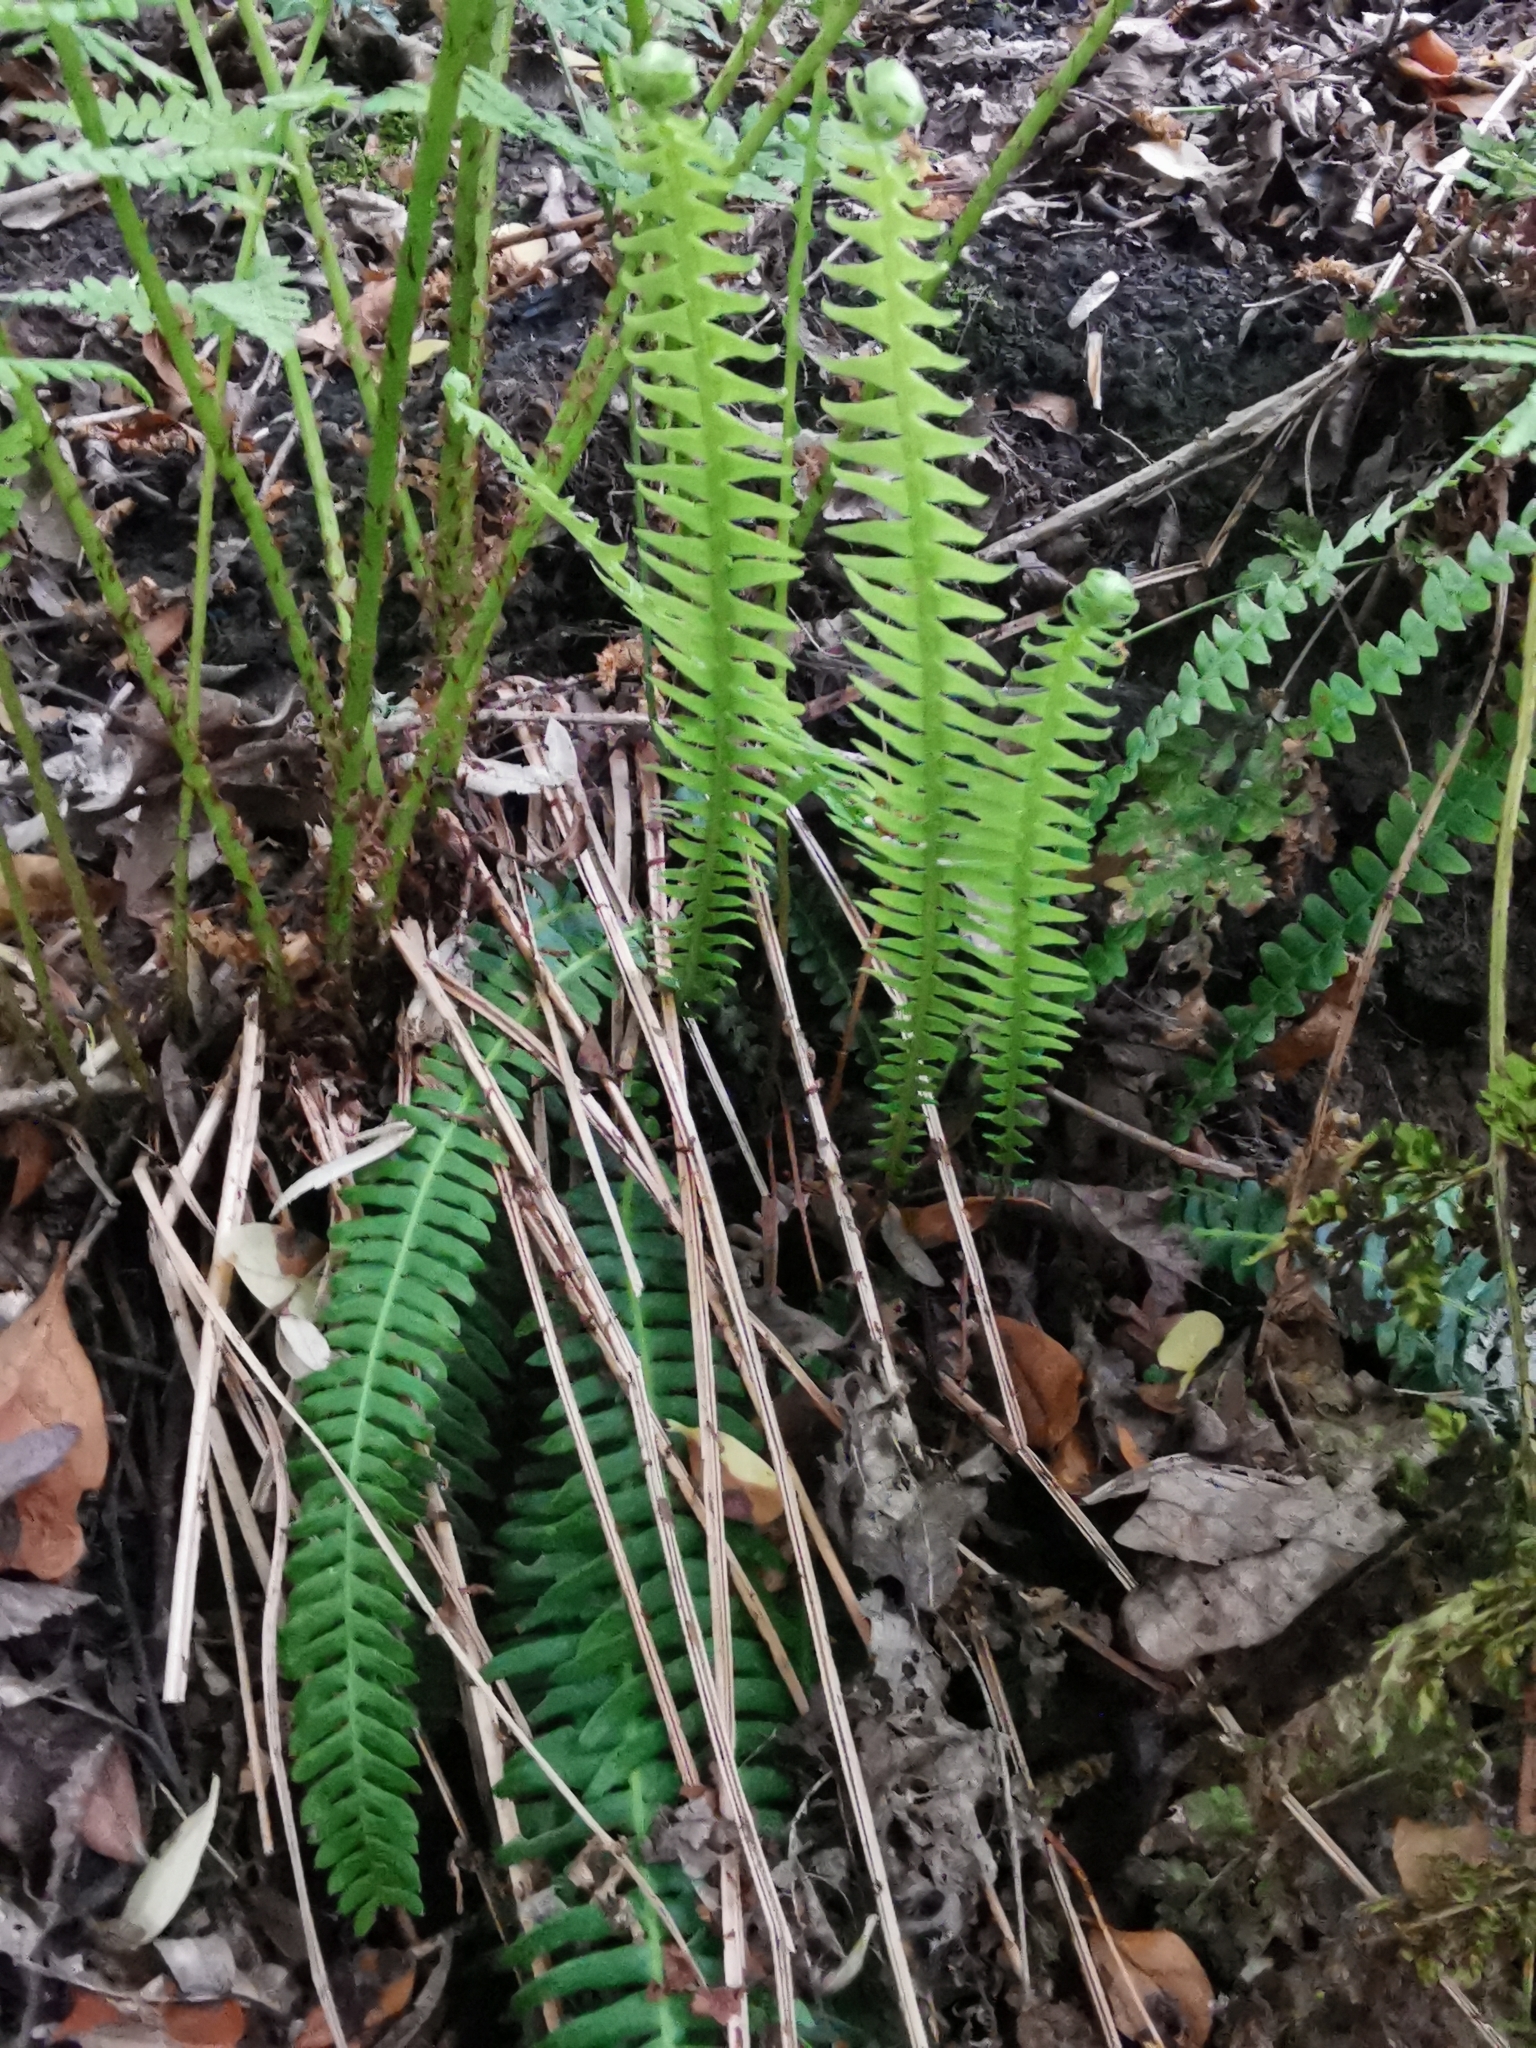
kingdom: Plantae
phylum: Tracheophyta
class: Polypodiopsida
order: Polypodiales
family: Blechnaceae
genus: Struthiopteris
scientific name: Struthiopteris spicant
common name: Deer fern
